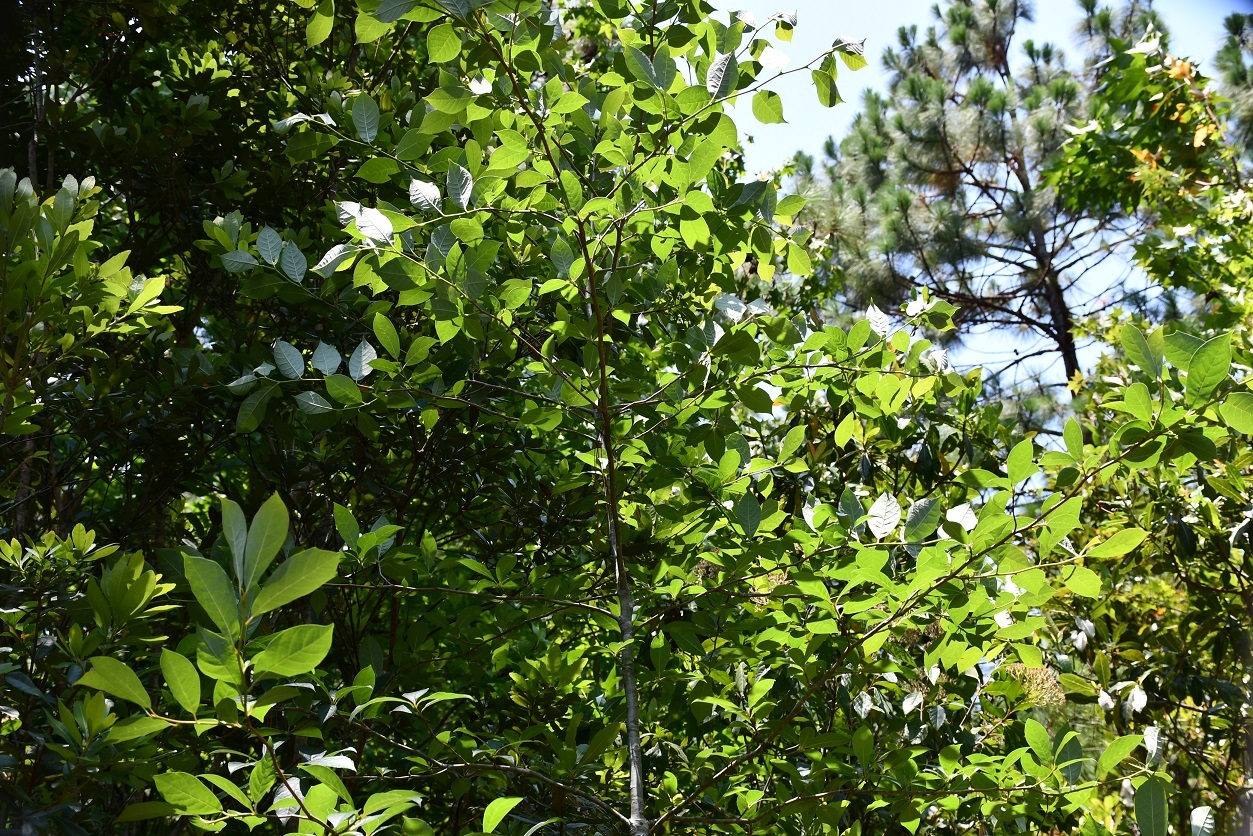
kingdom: Plantae
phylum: Tracheophyta
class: Magnoliopsida
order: Cornales
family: Nyssaceae
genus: Nyssa
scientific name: Nyssa sylvatica
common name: Black tupelo
